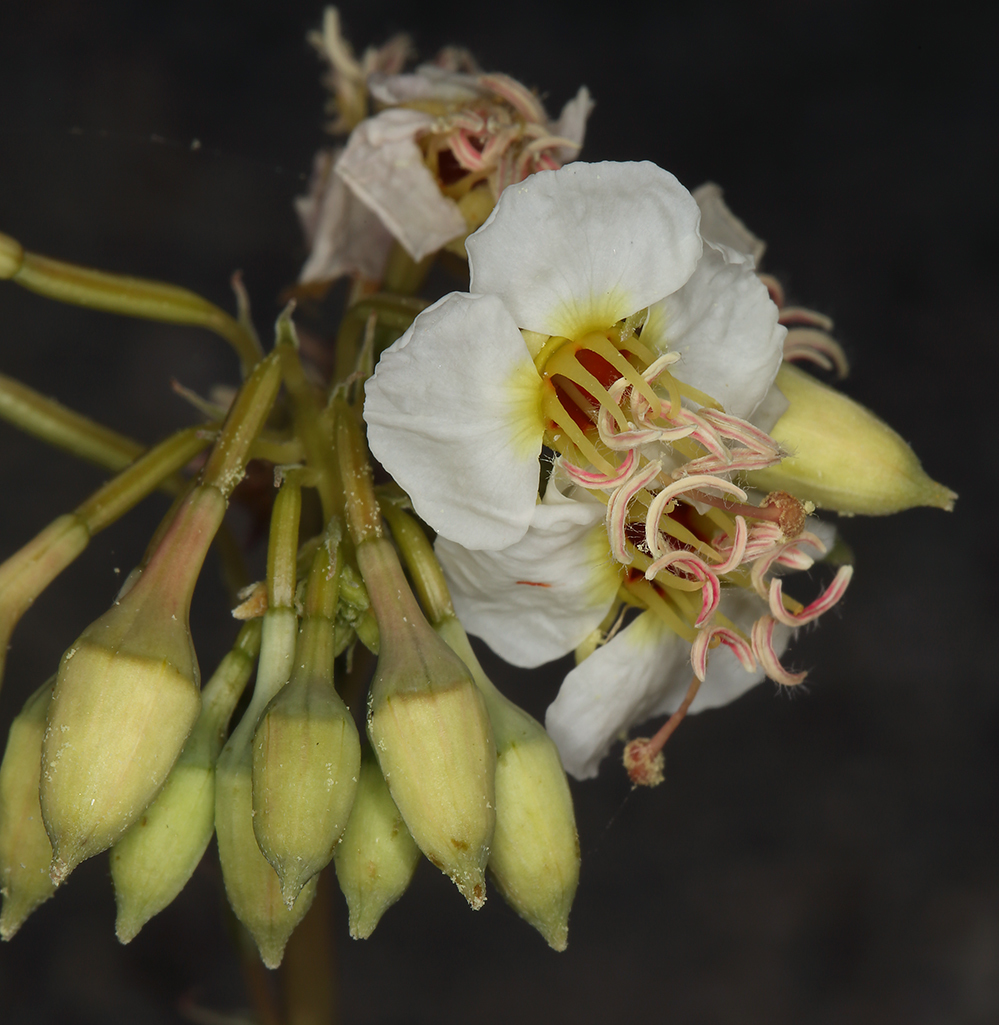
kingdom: Plantae
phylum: Tracheophyta
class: Magnoliopsida
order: Myrtales
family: Onagraceae
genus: Chylismia
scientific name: Chylismia claviformis
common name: Browneyes
